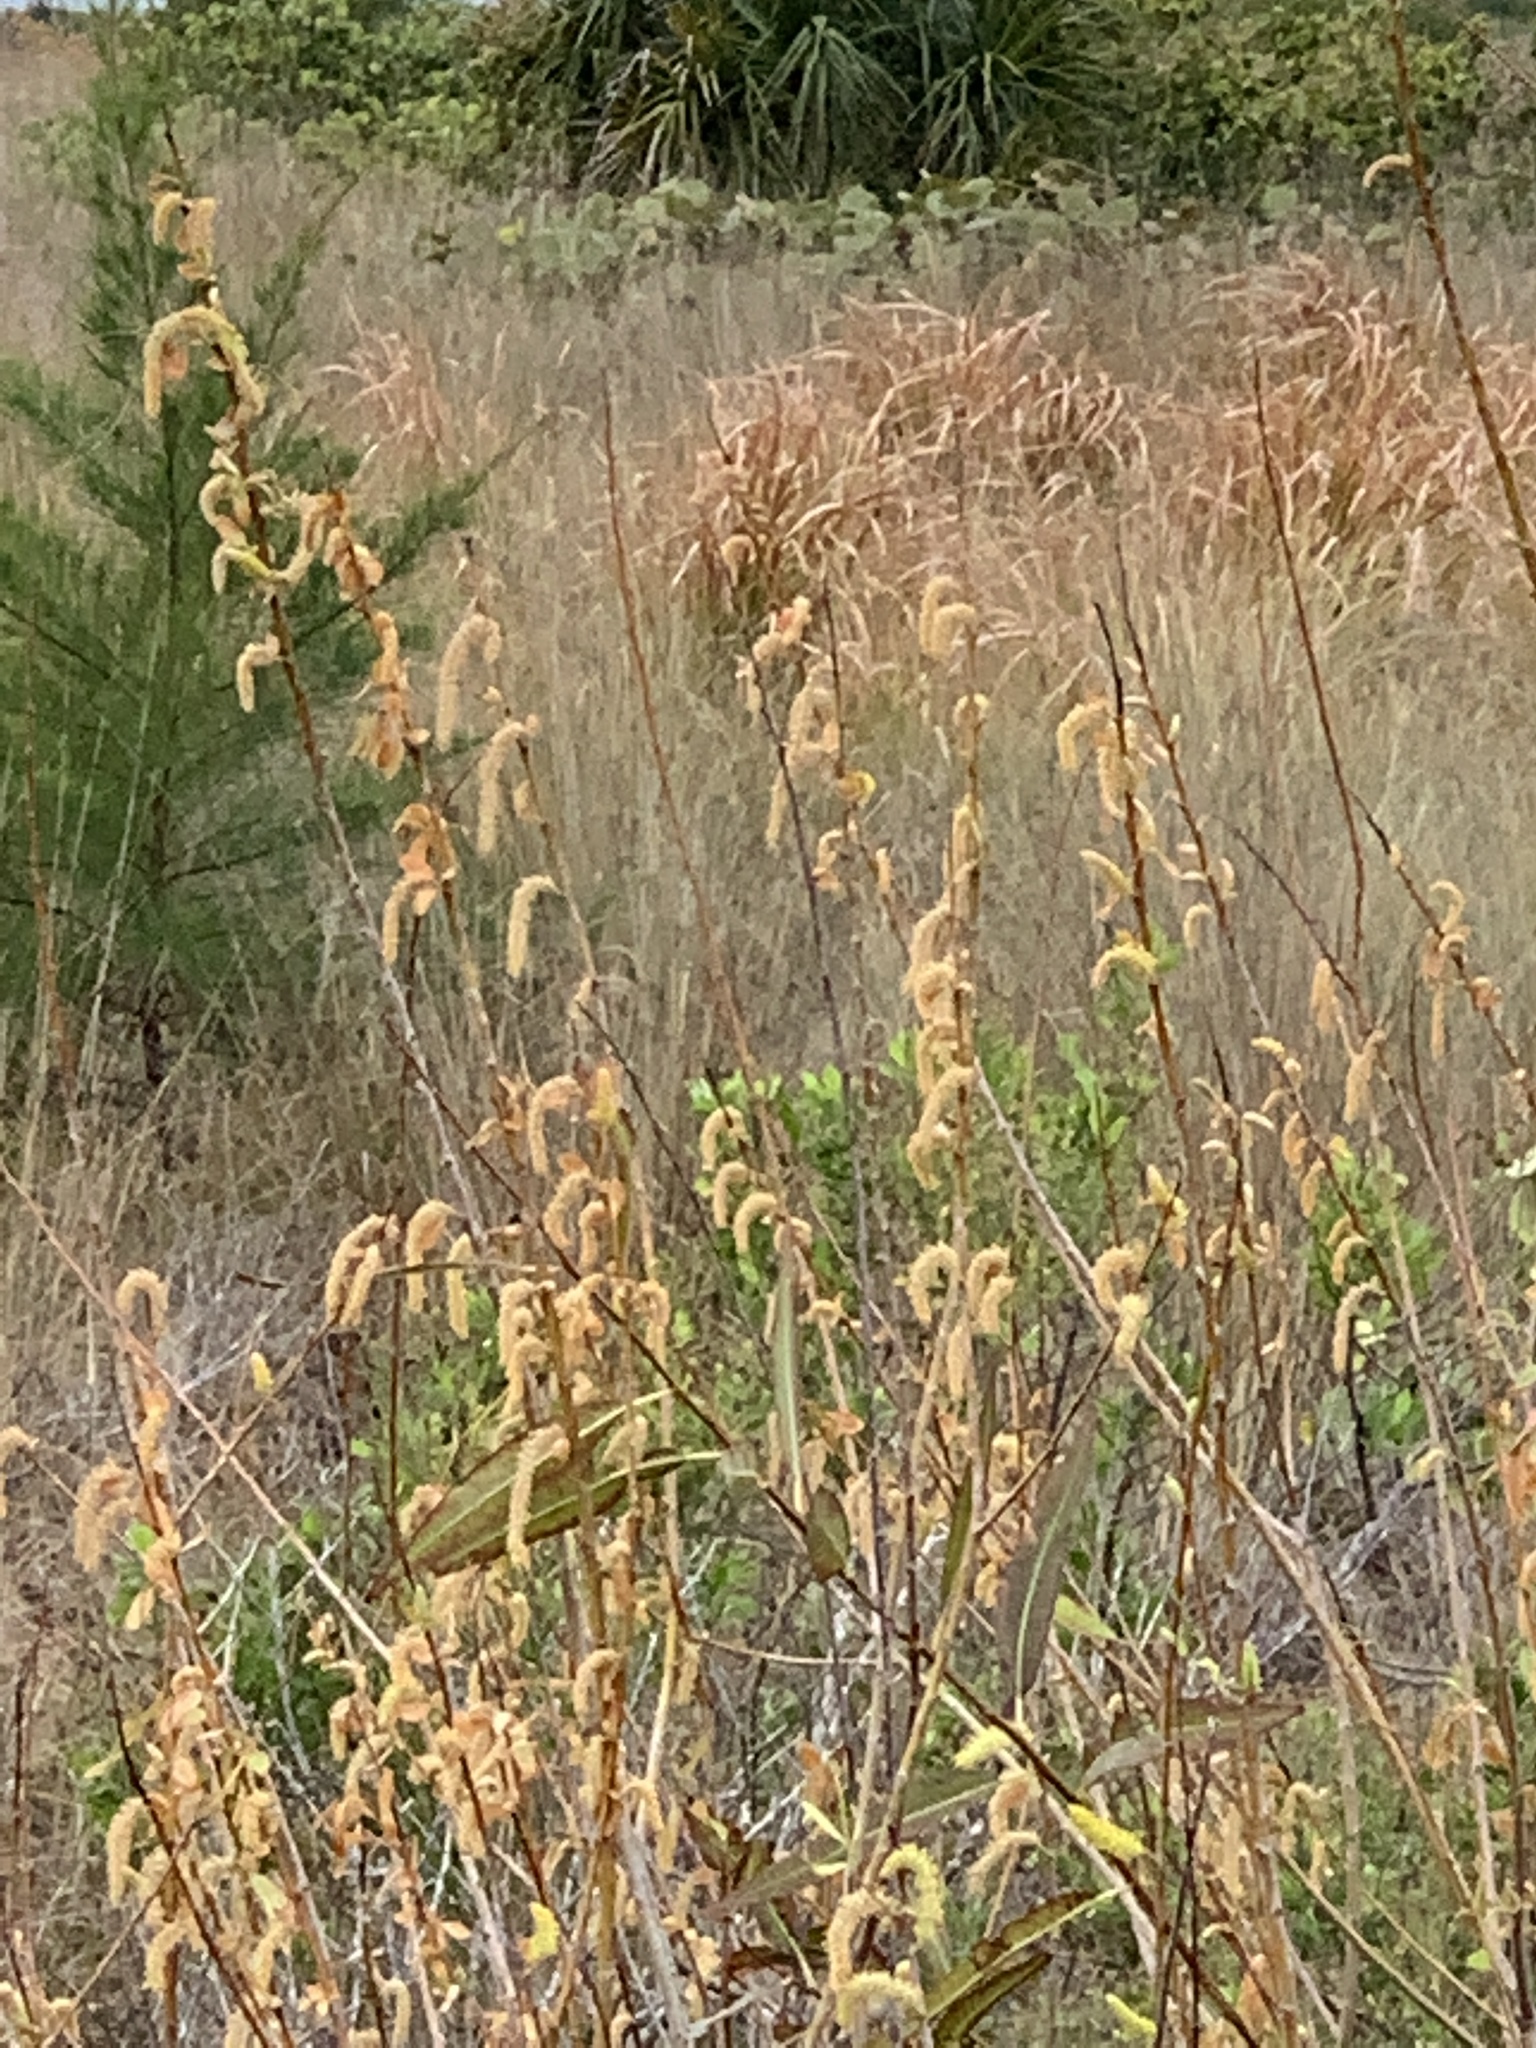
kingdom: Plantae
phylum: Tracheophyta
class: Magnoliopsida
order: Malpighiales
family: Salicaceae
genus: Salix
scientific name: Salix caroliniana
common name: Carolina willow
